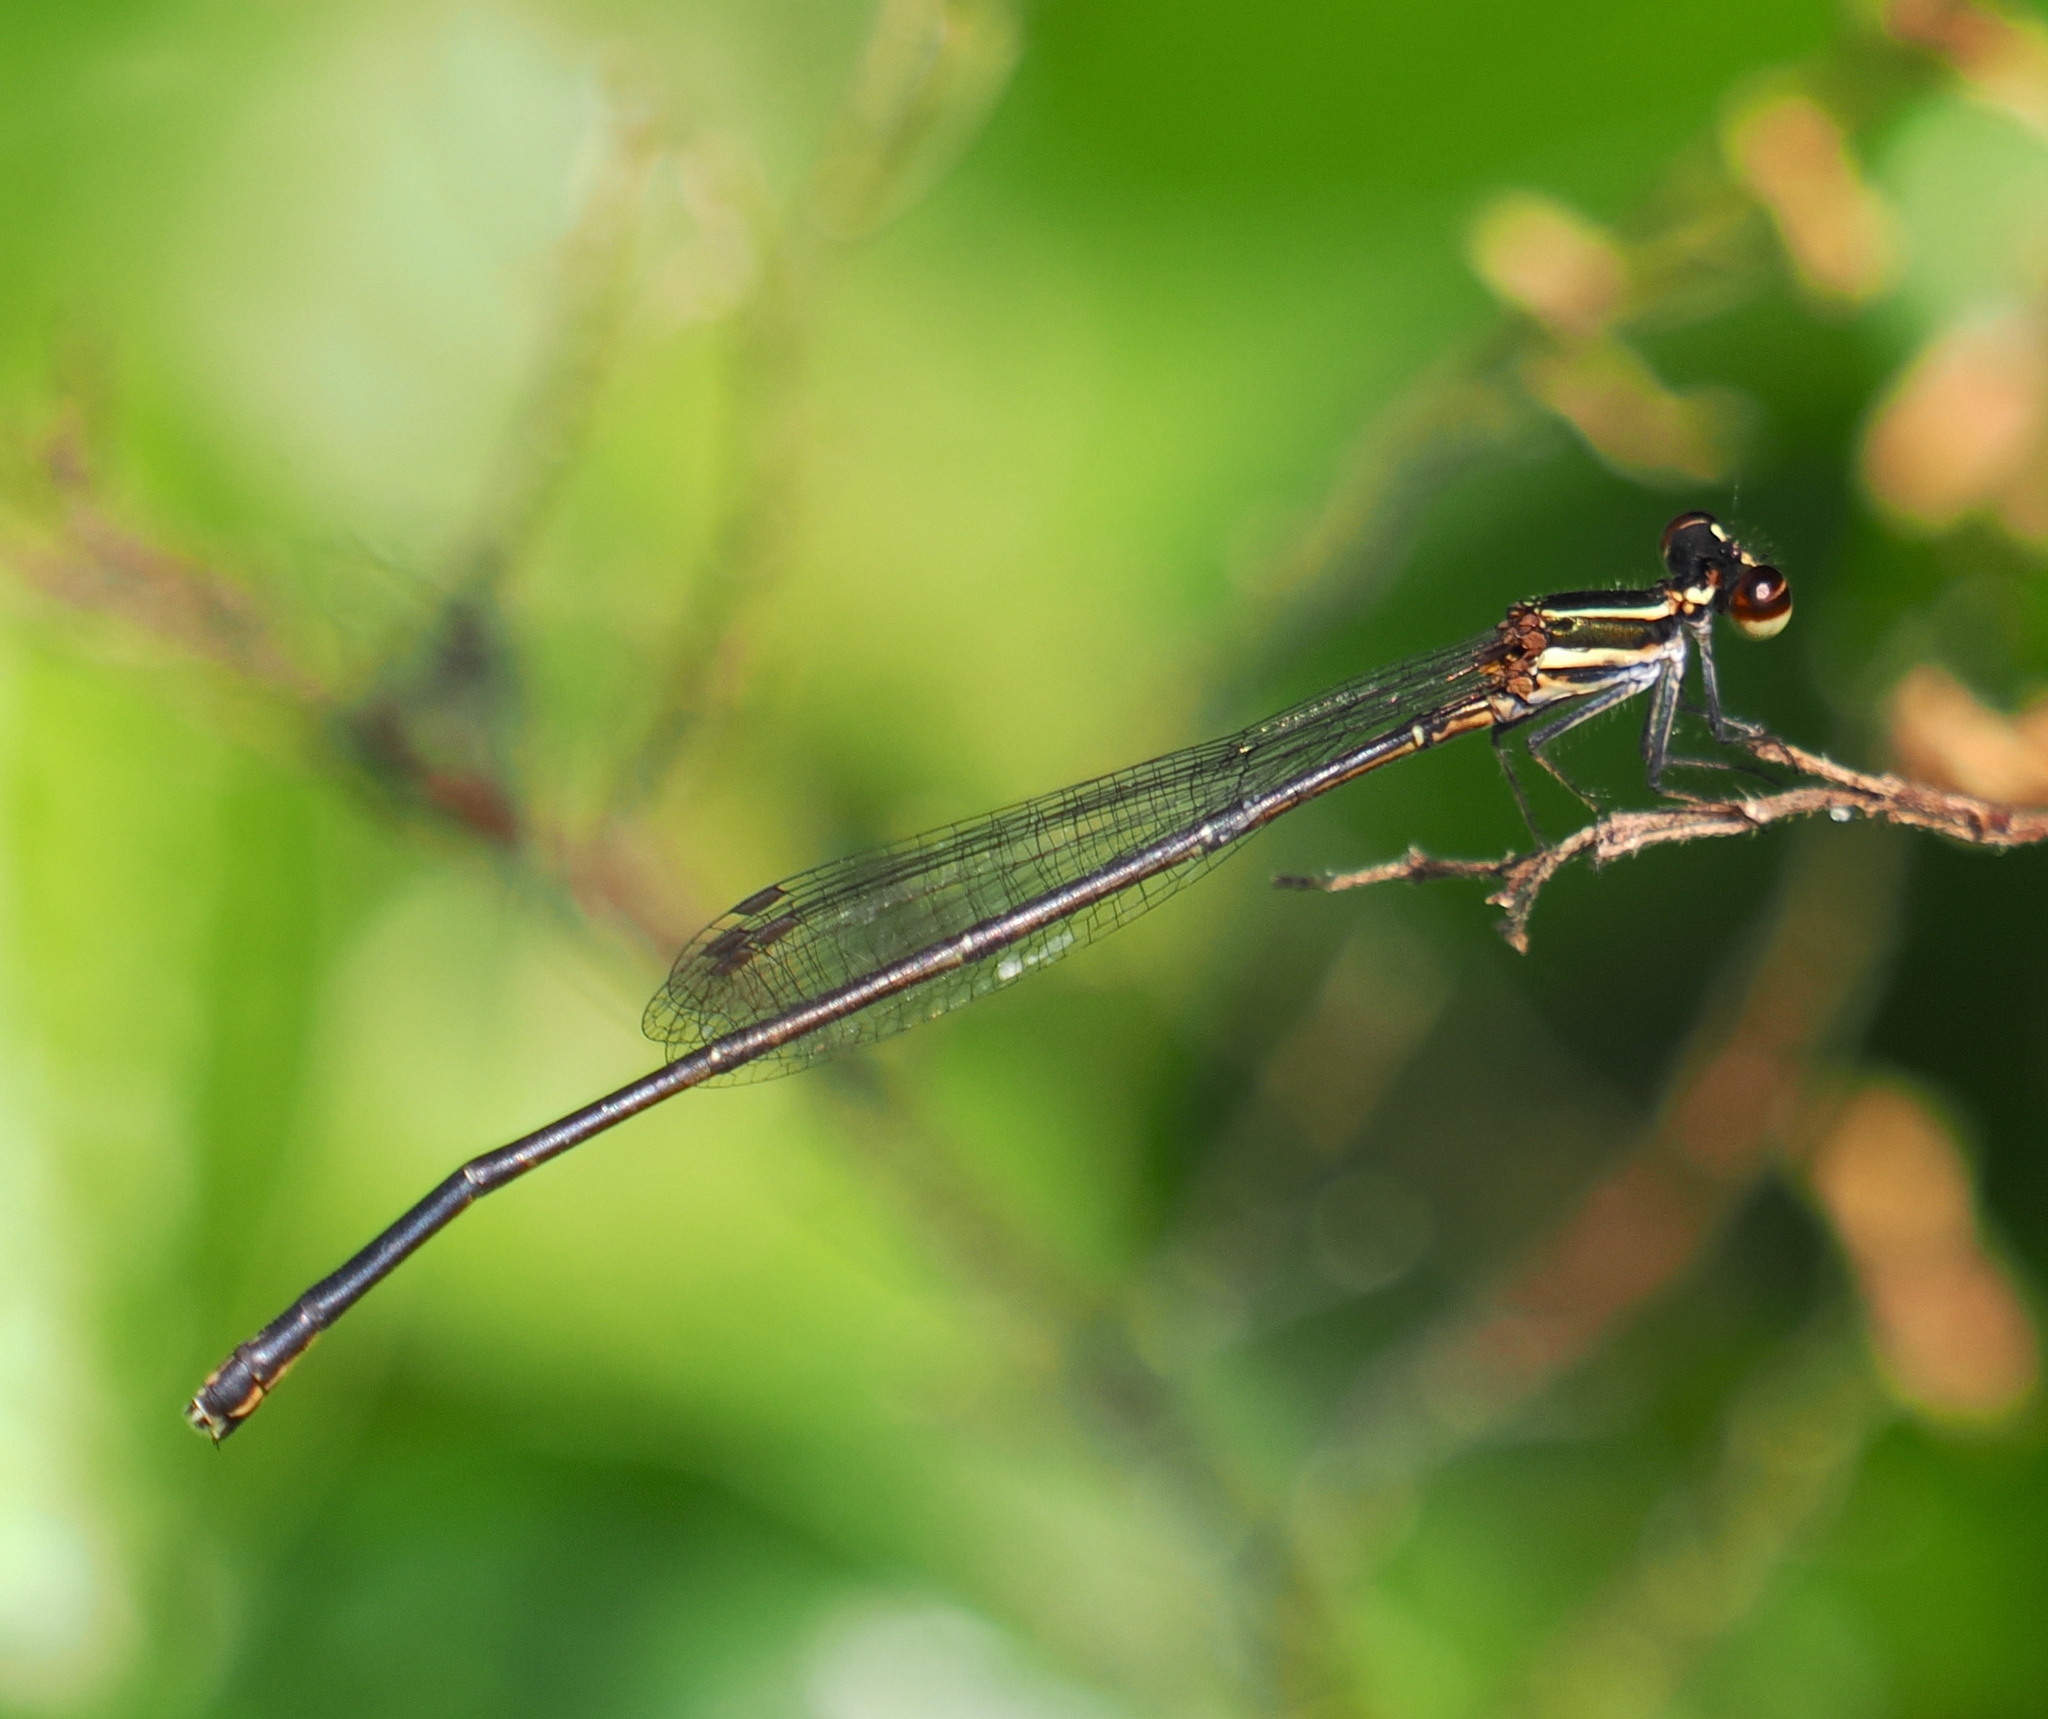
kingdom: Animalia
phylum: Arthropoda
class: Insecta
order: Odonata
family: Platycnemididae
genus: Prodasineura
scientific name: Prodasineura verticalis
